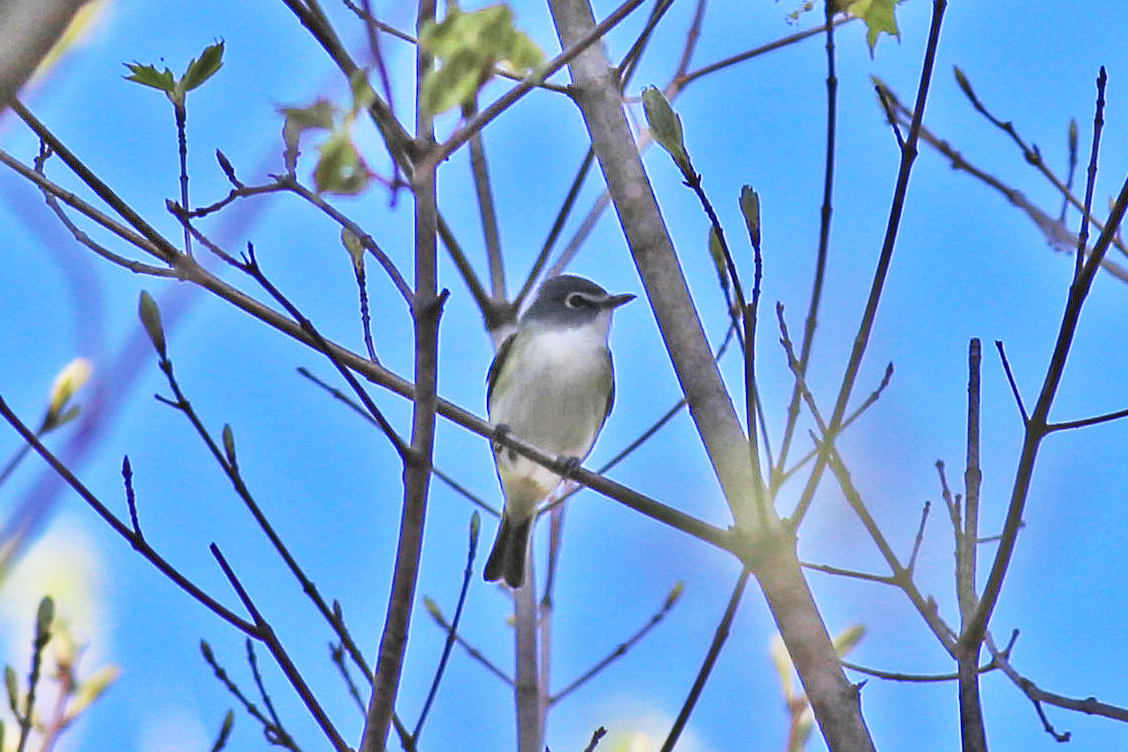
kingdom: Animalia
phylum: Chordata
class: Aves
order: Passeriformes
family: Vireonidae
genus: Vireo
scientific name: Vireo solitarius
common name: Blue-headed vireo
